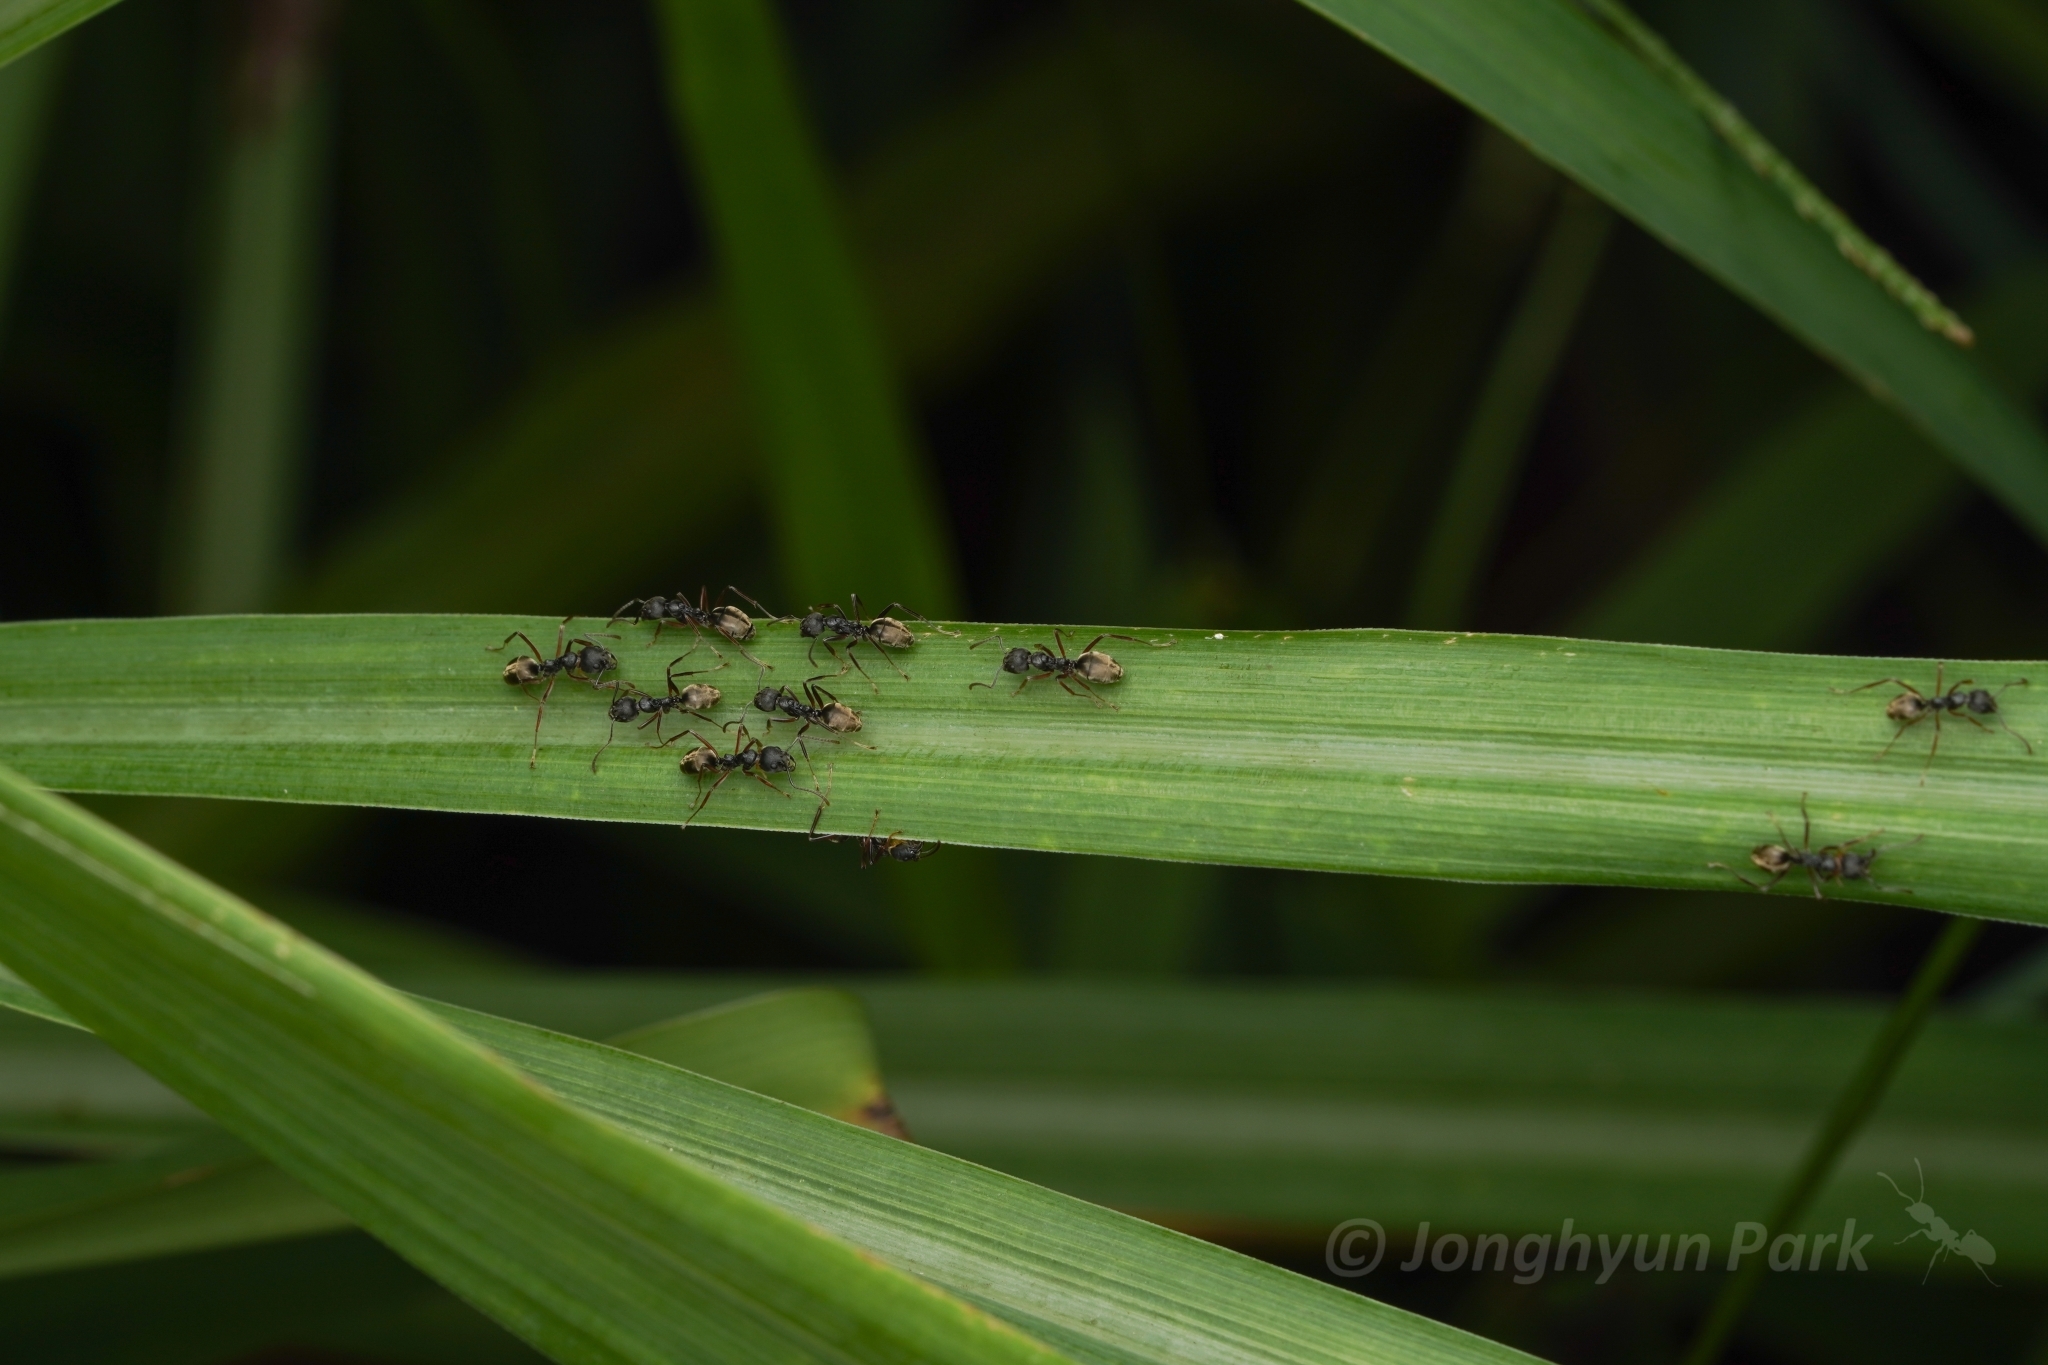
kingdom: Animalia
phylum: Arthropoda
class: Insecta
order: Hymenoptera
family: Formicidae
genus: Dolichoderus
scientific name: Dolichoderus
